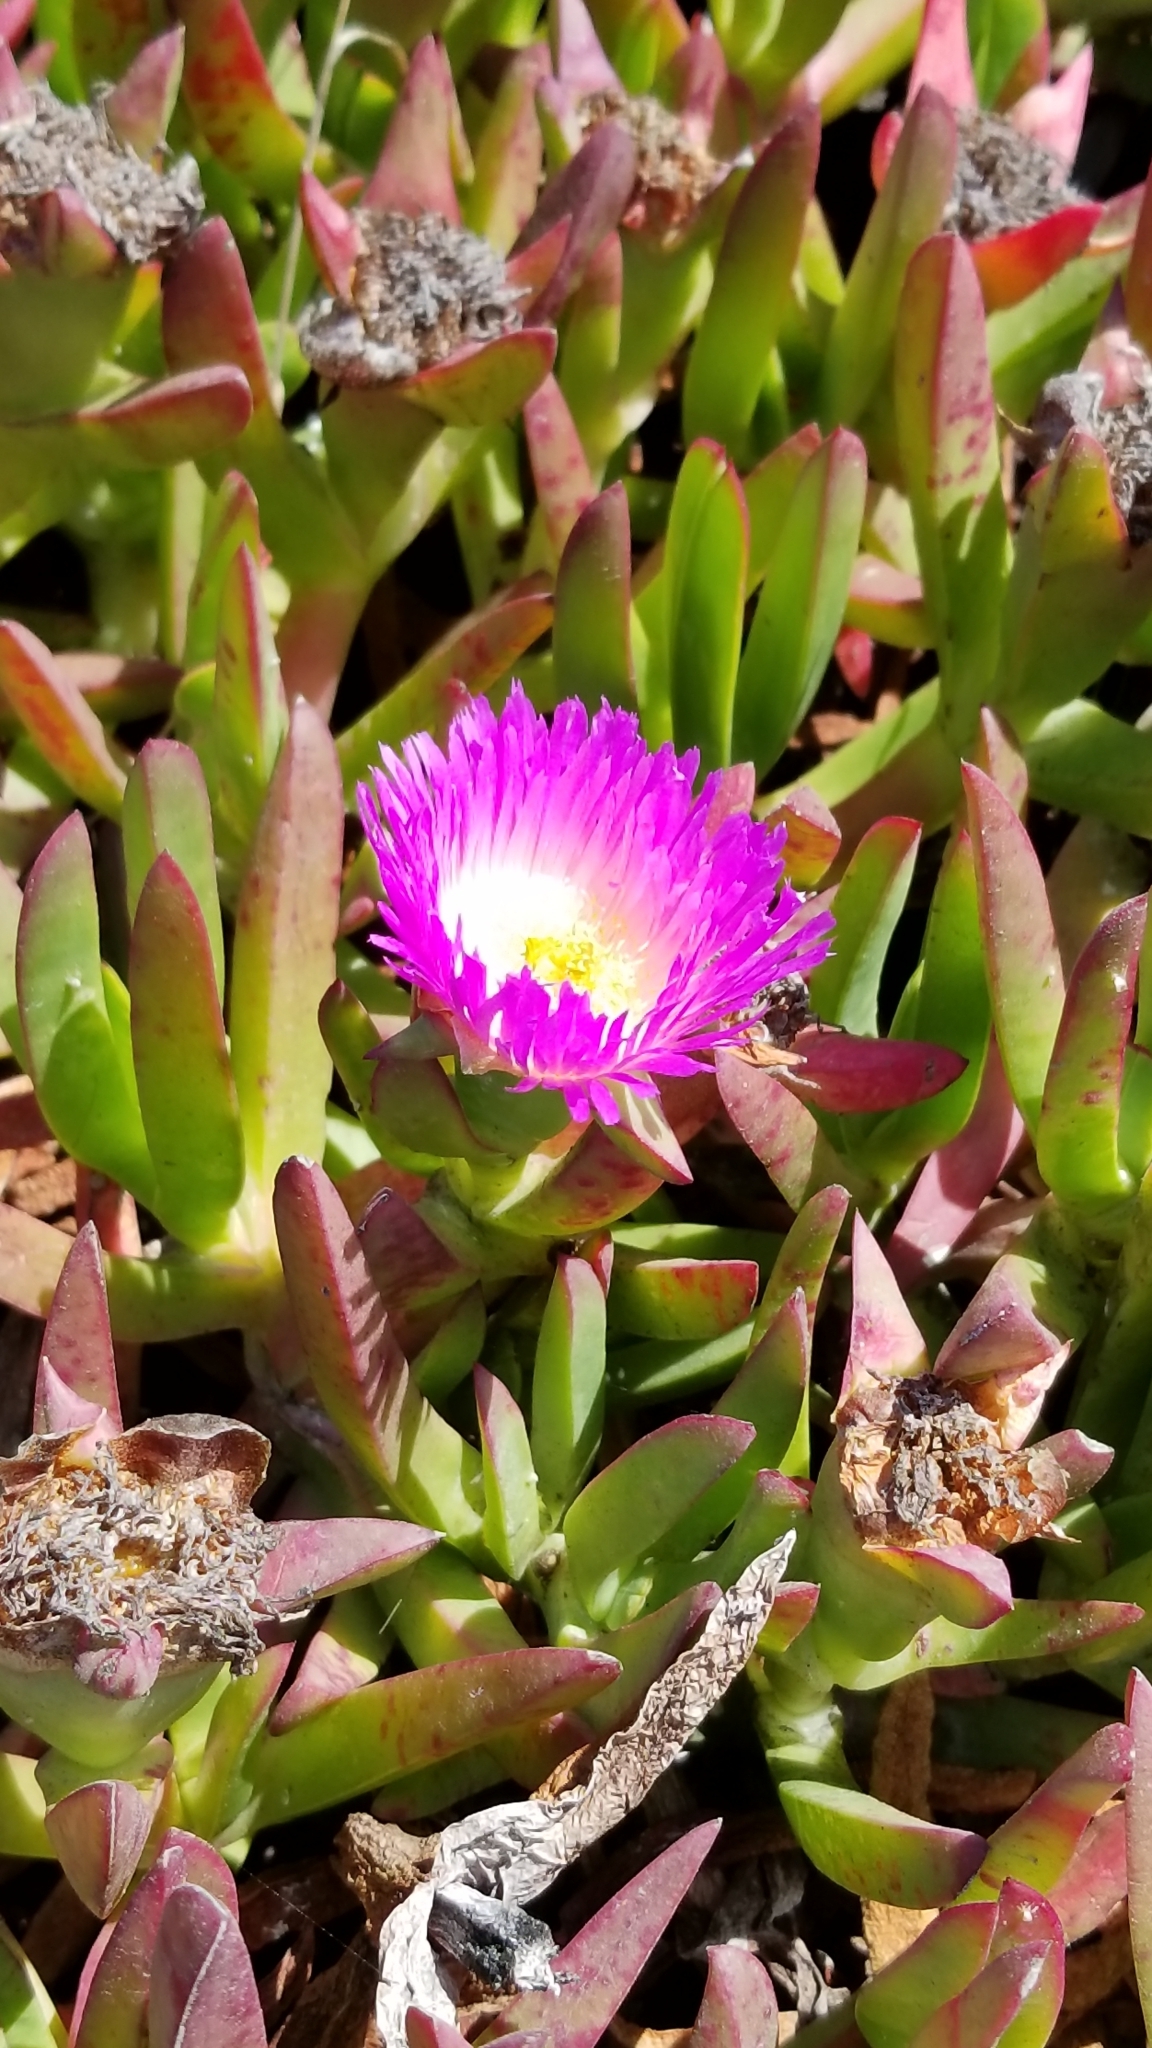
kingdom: Plantae
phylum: Tracheophyta
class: Magnoliopsida
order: Caryophyllales
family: Aizoaceae
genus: Carpobrotus
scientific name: Carpobrotus chilensis
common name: Sea fig
